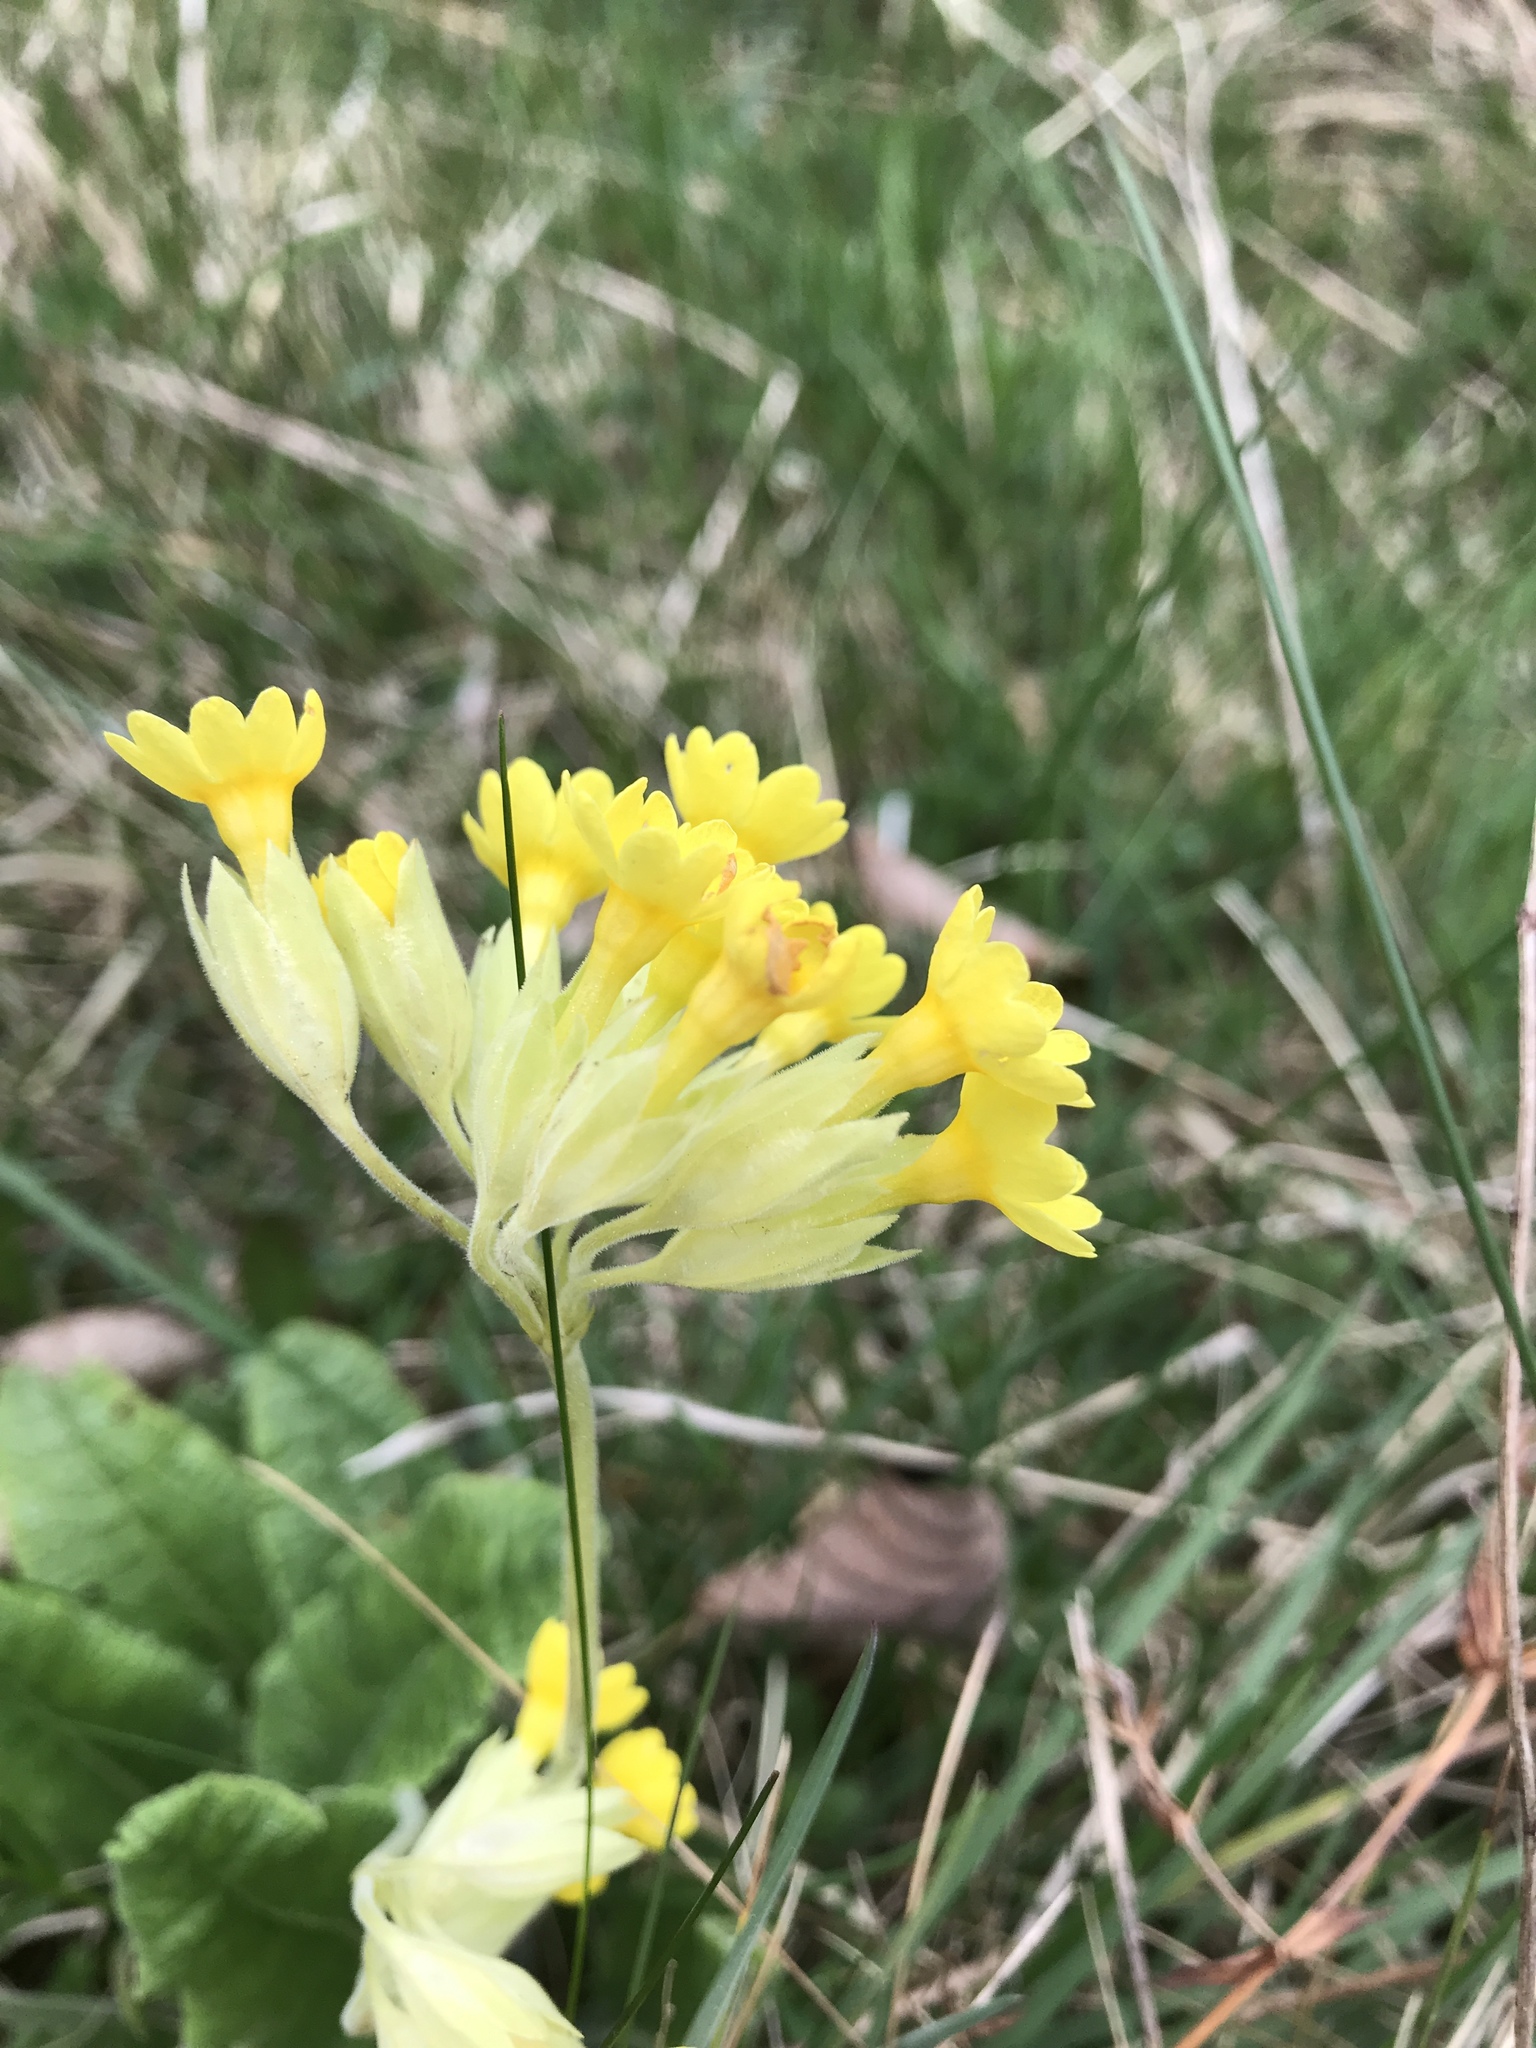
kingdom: Plantae
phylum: Tracheophyta
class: Magnoliopsida
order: Ericales
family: Primulaceae
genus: Primula
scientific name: Primula veris
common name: Cowslip
